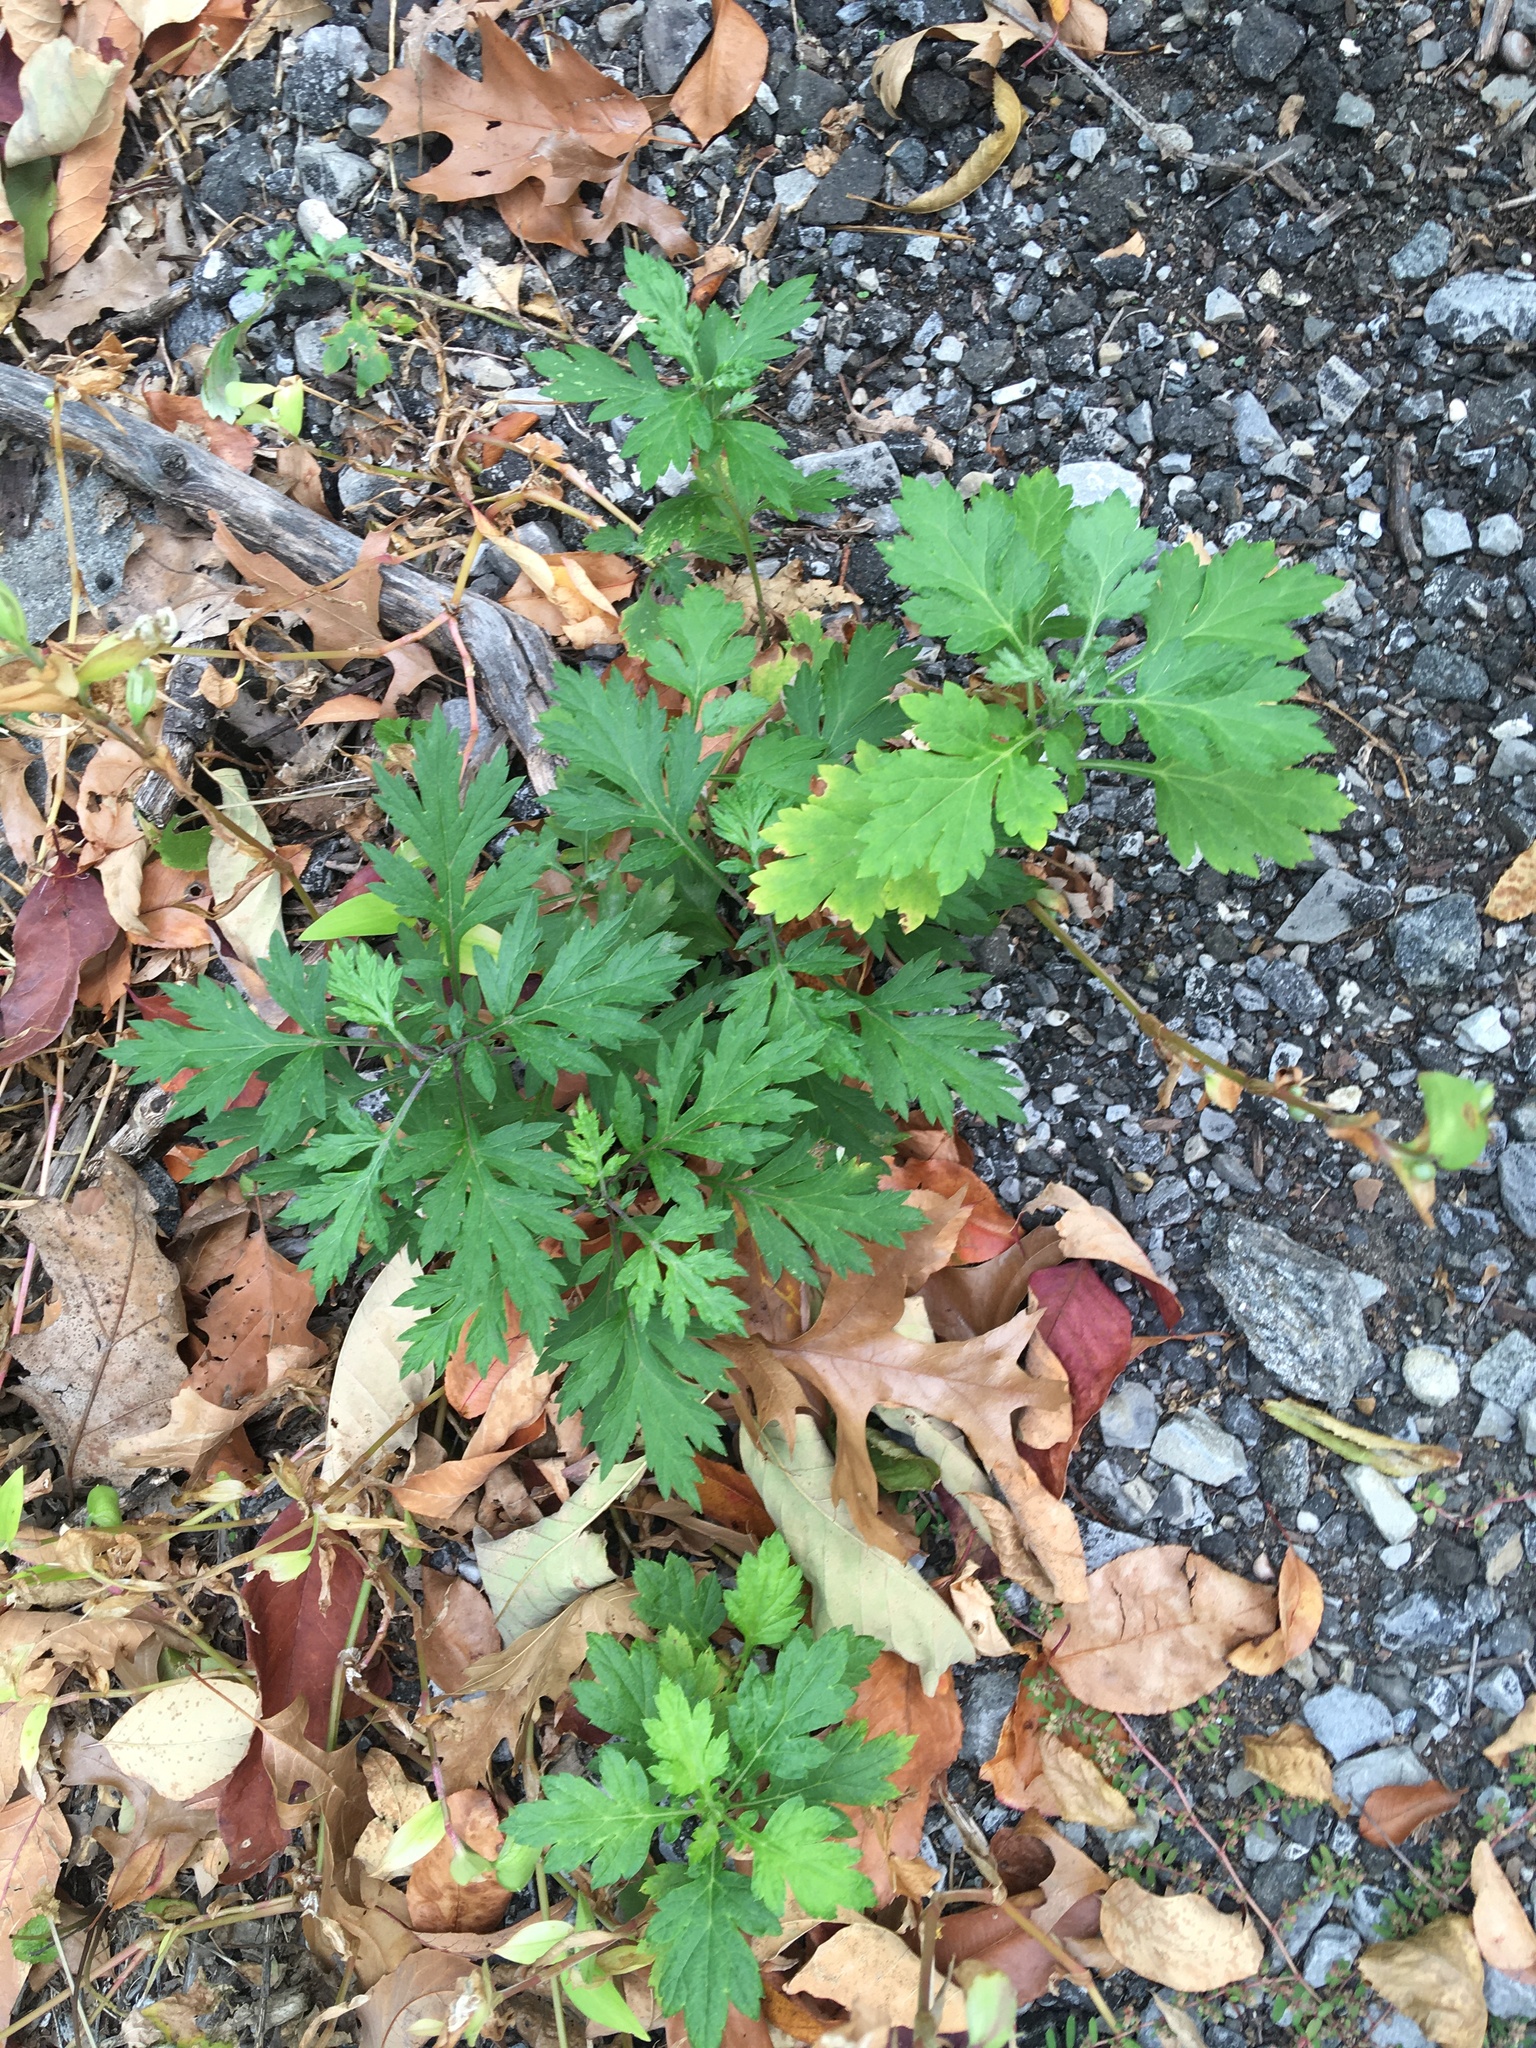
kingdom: Plantae
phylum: Tracheophyta
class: Magnoliopsida
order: Asterales
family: Asteraceae
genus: Artemisia
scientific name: Artemisia vulgaris
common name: Mugwort
